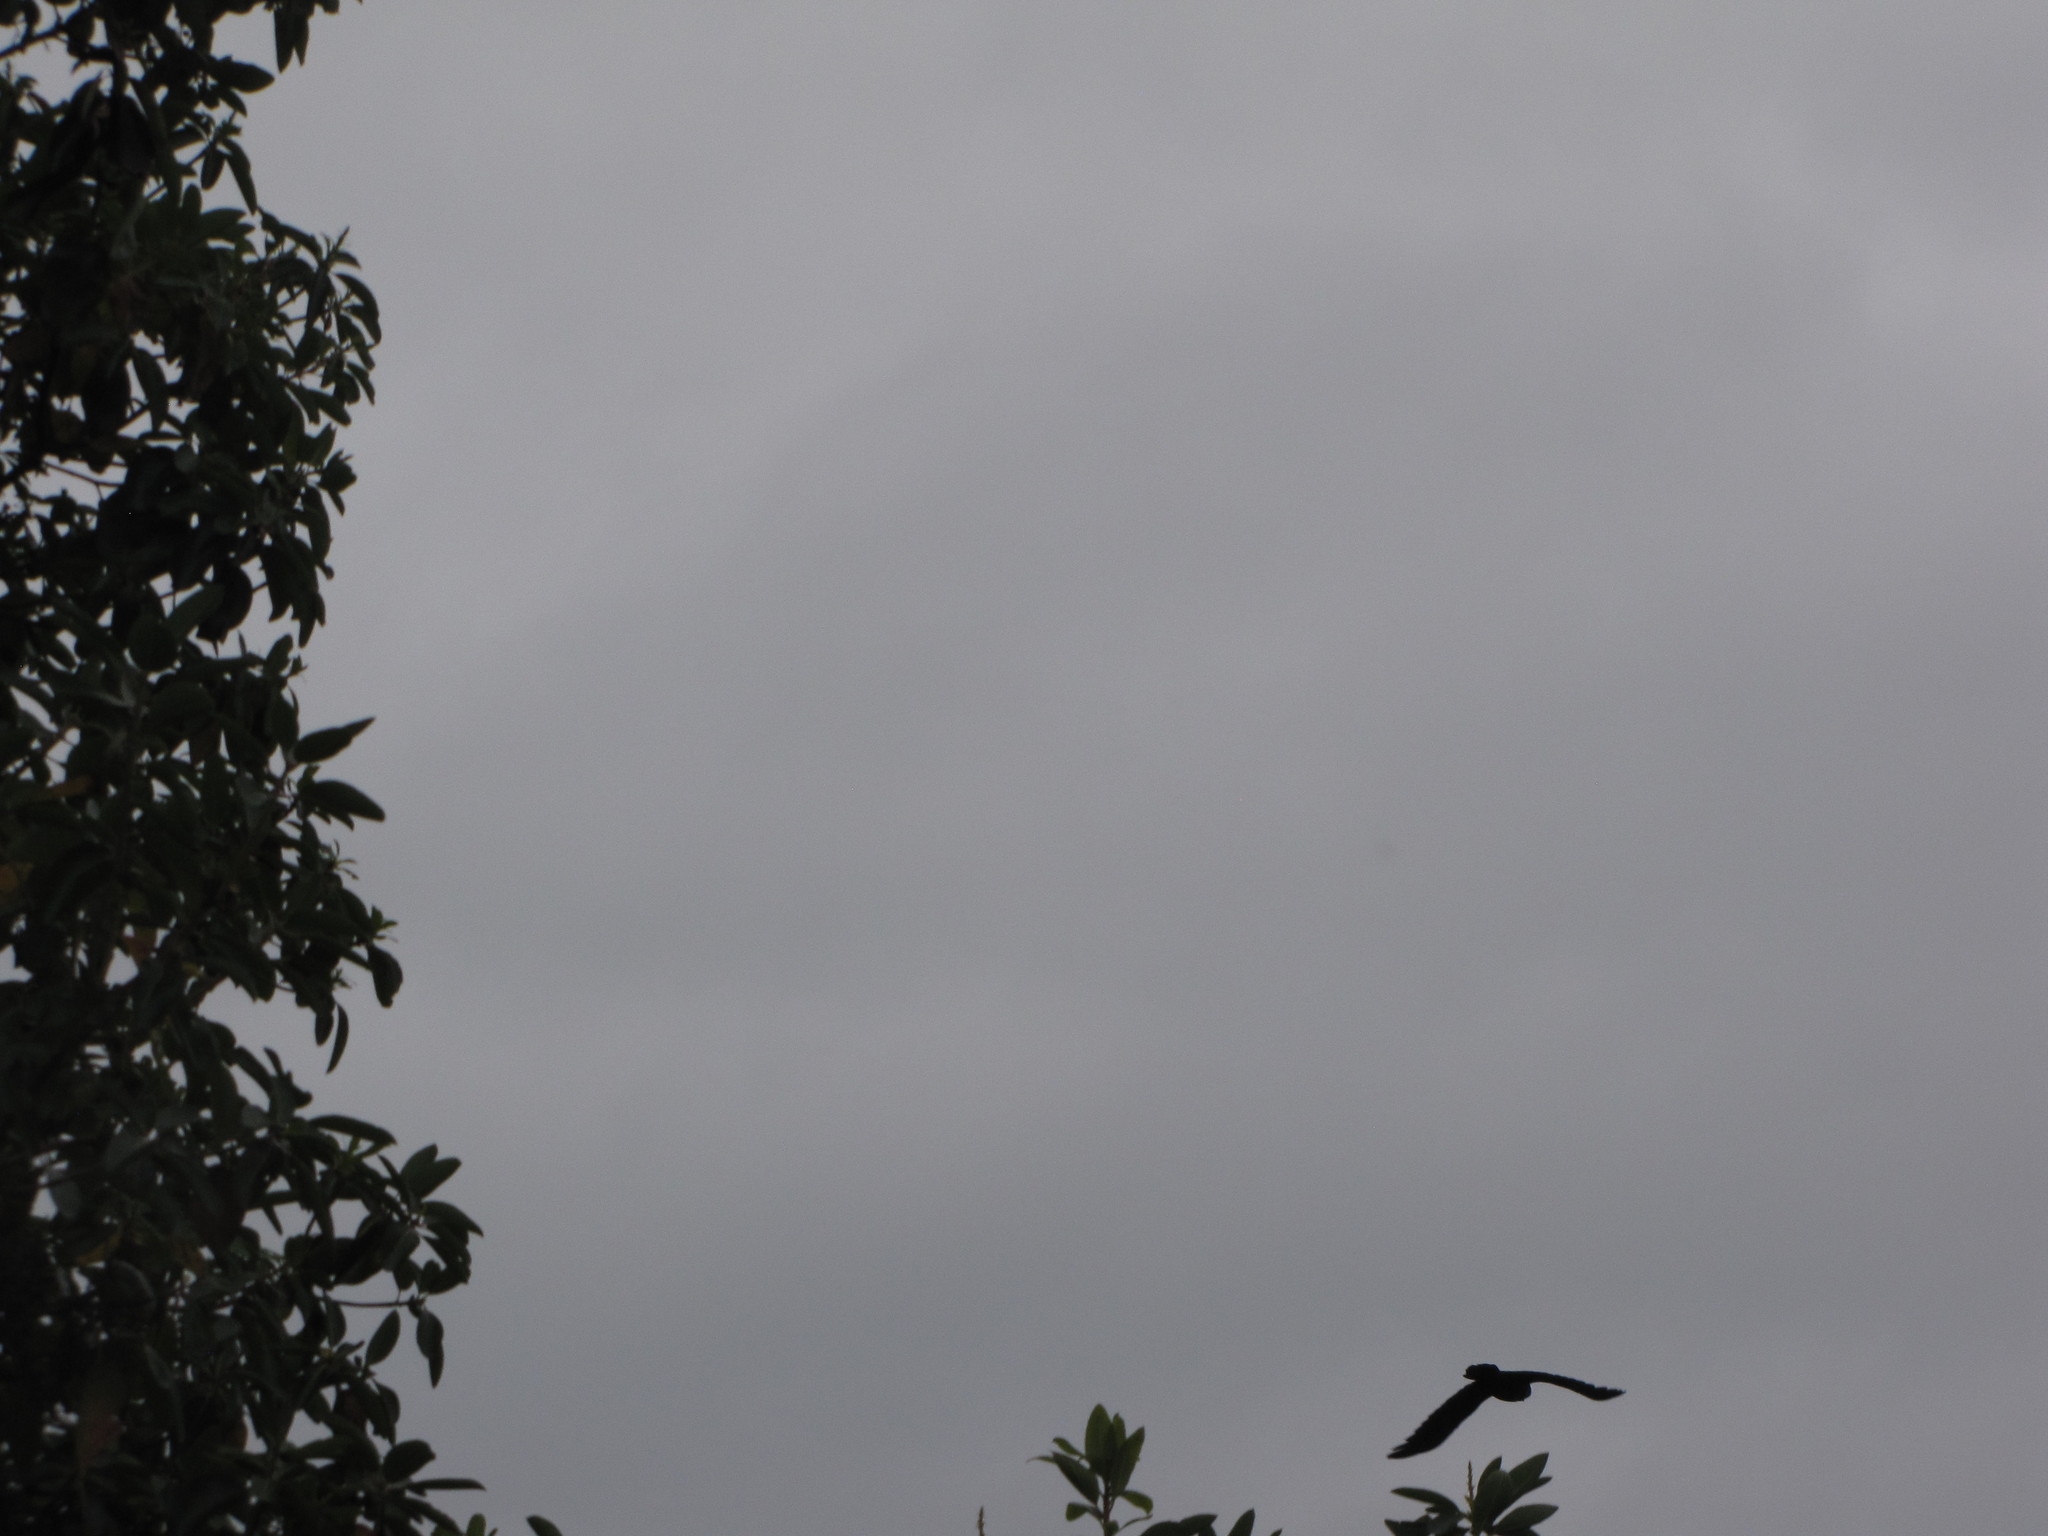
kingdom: Animalia
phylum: Chordata
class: Aves
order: Passeriformes
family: Corvidae
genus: Corvus
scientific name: Corvus corax
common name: Common raven
